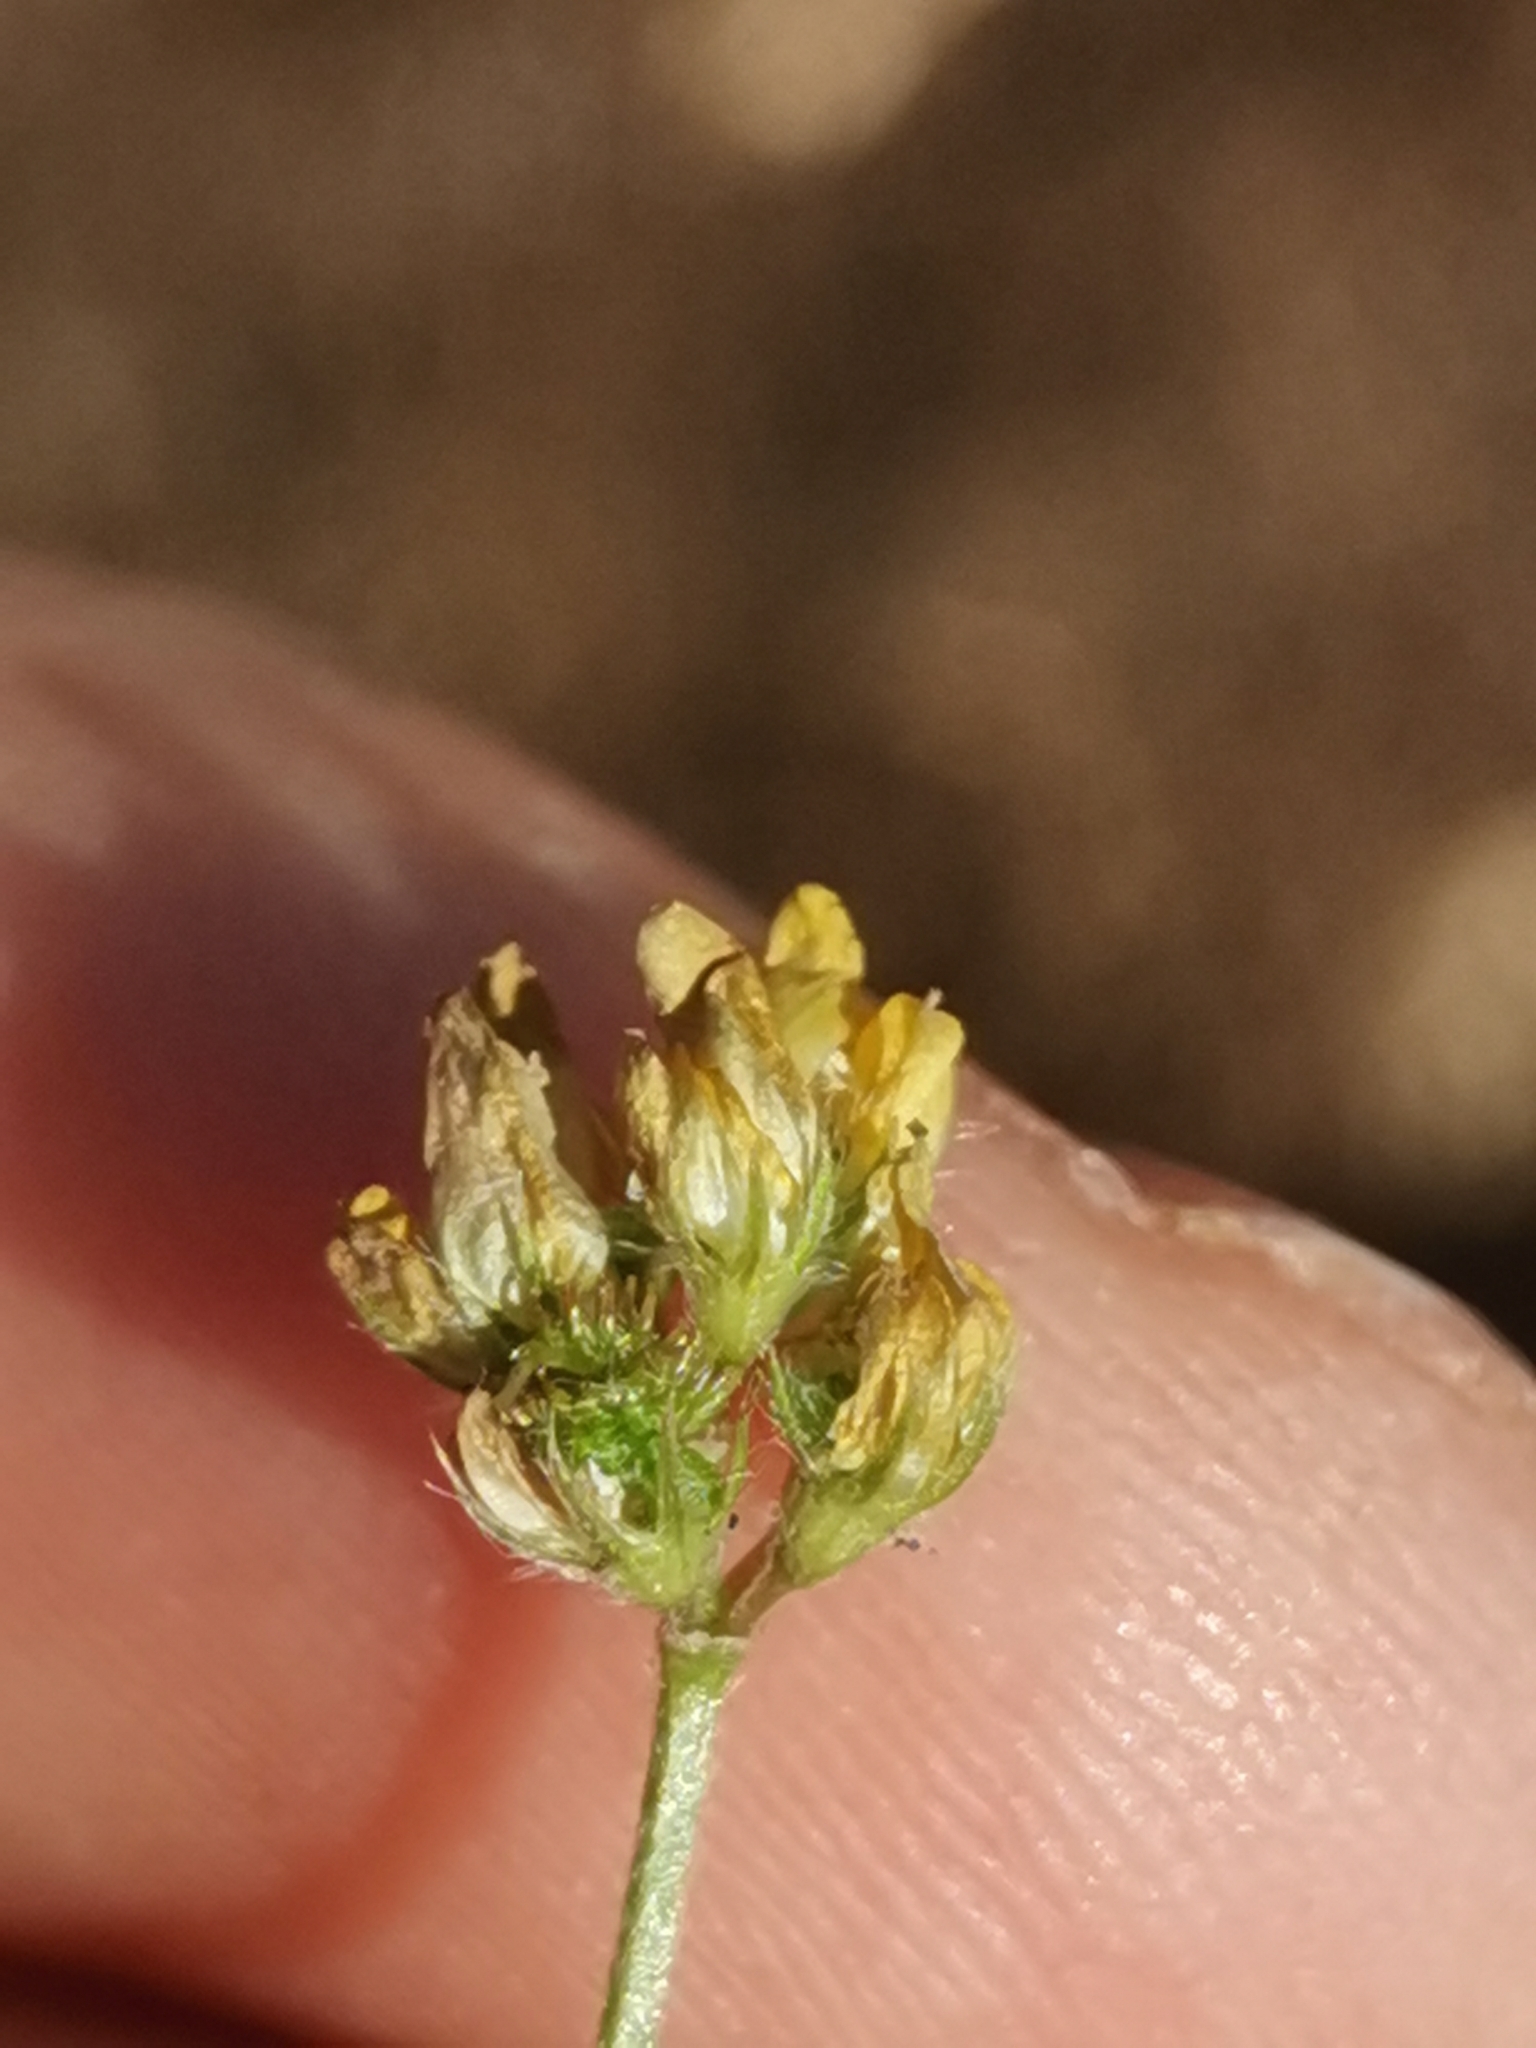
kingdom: Plantae
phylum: Tracheophyta
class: Magnoliopsida
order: Fabales
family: Fabaceae
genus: Medicago
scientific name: Medicago minima
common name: Little bur-clover
